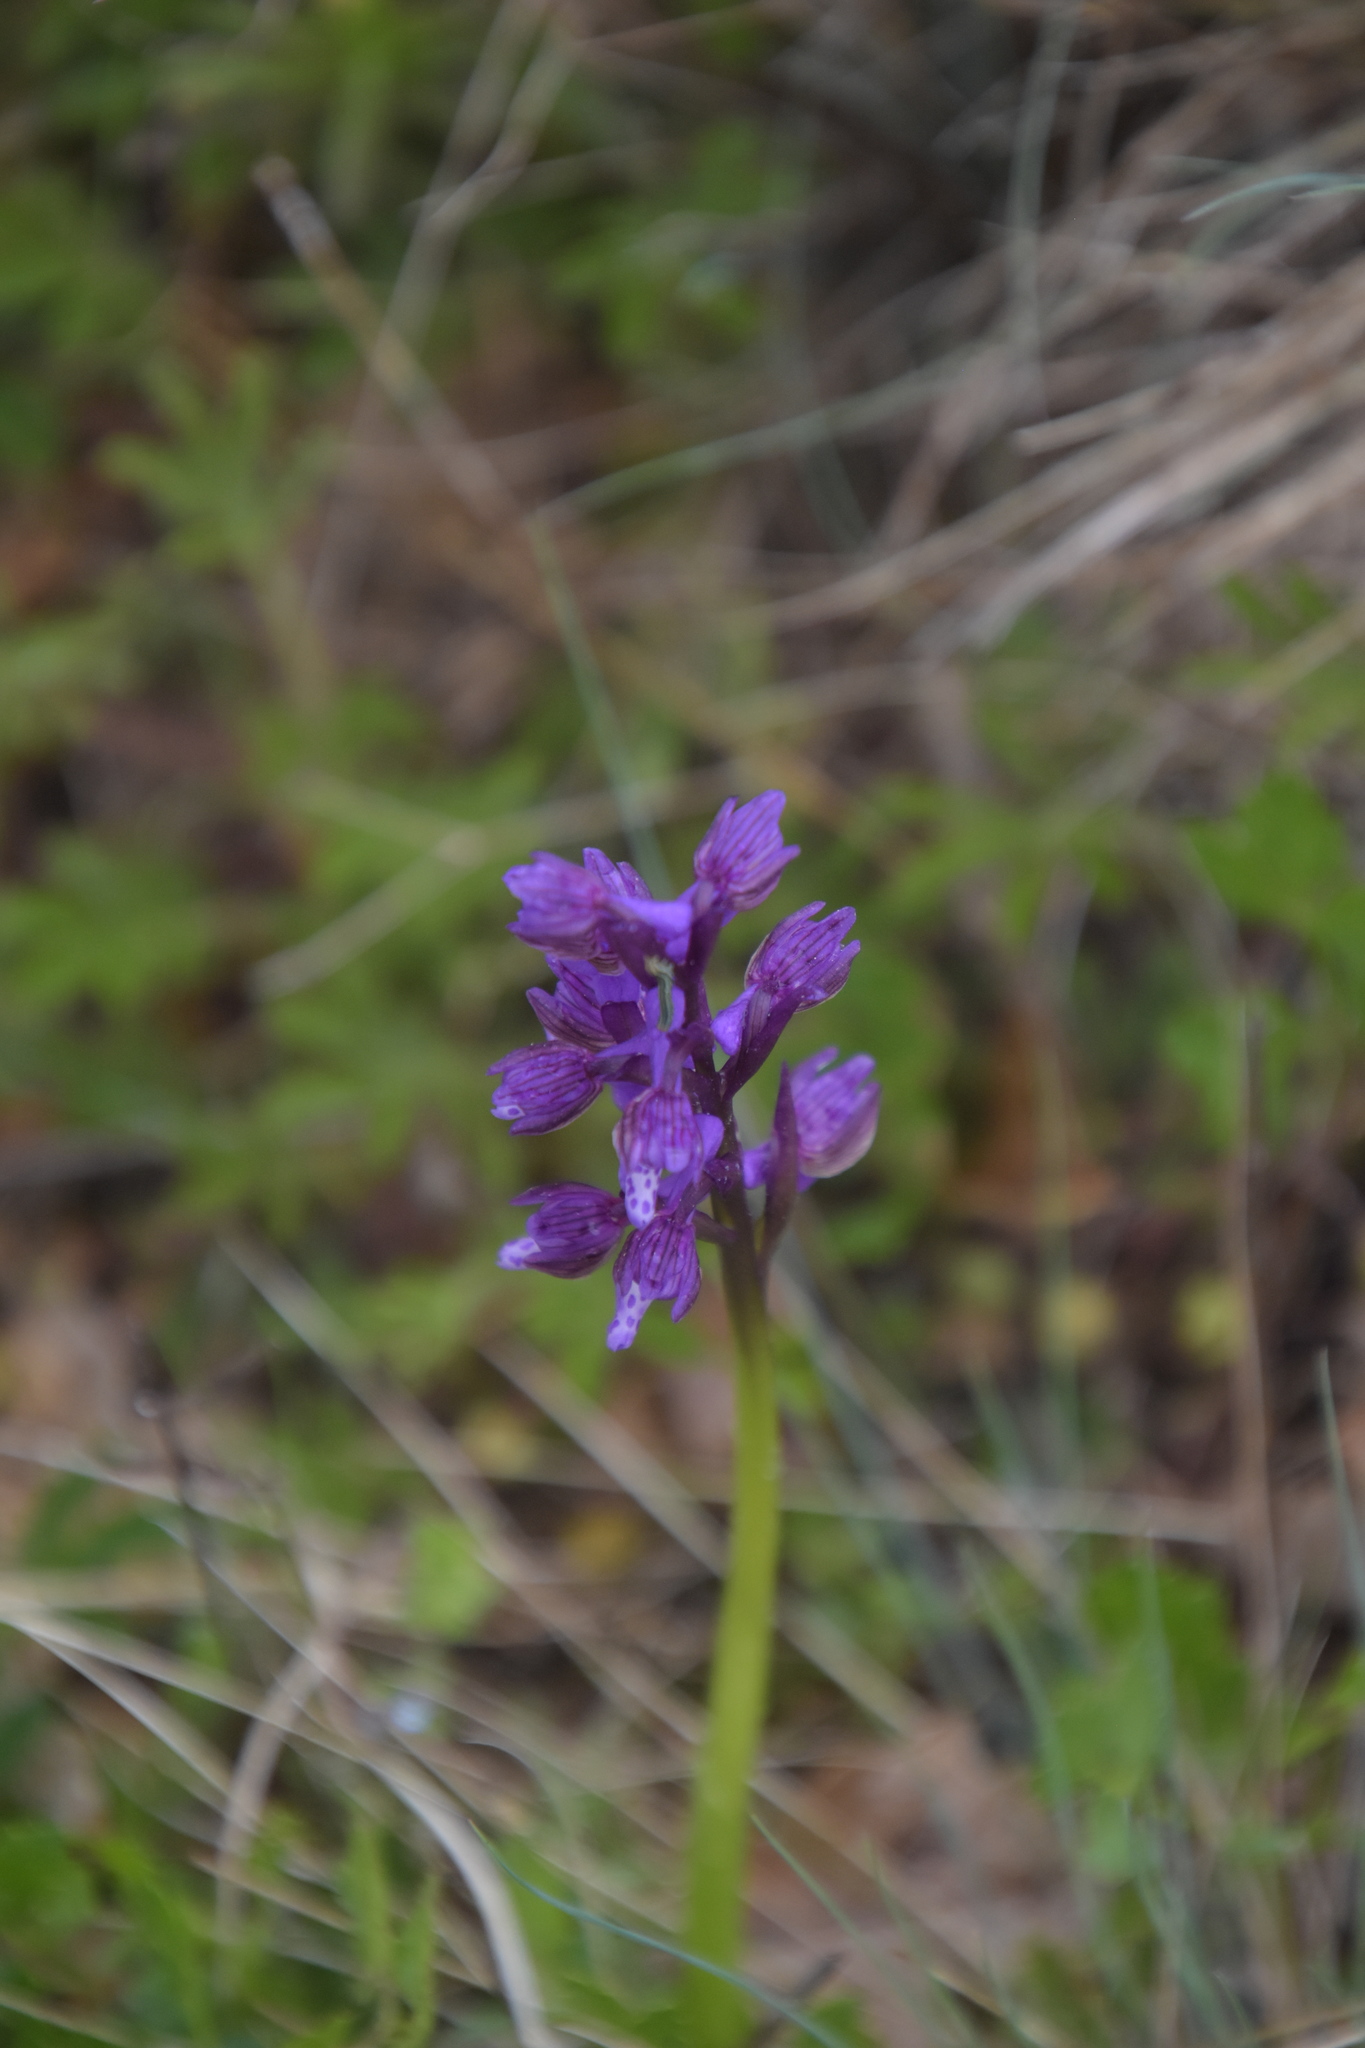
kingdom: Plantae
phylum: Tracheophyta
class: Liliopsida
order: Asparagales
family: Orchidaceae
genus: Anacamptis
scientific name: Anacamptis morio
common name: Green-winged orchid
